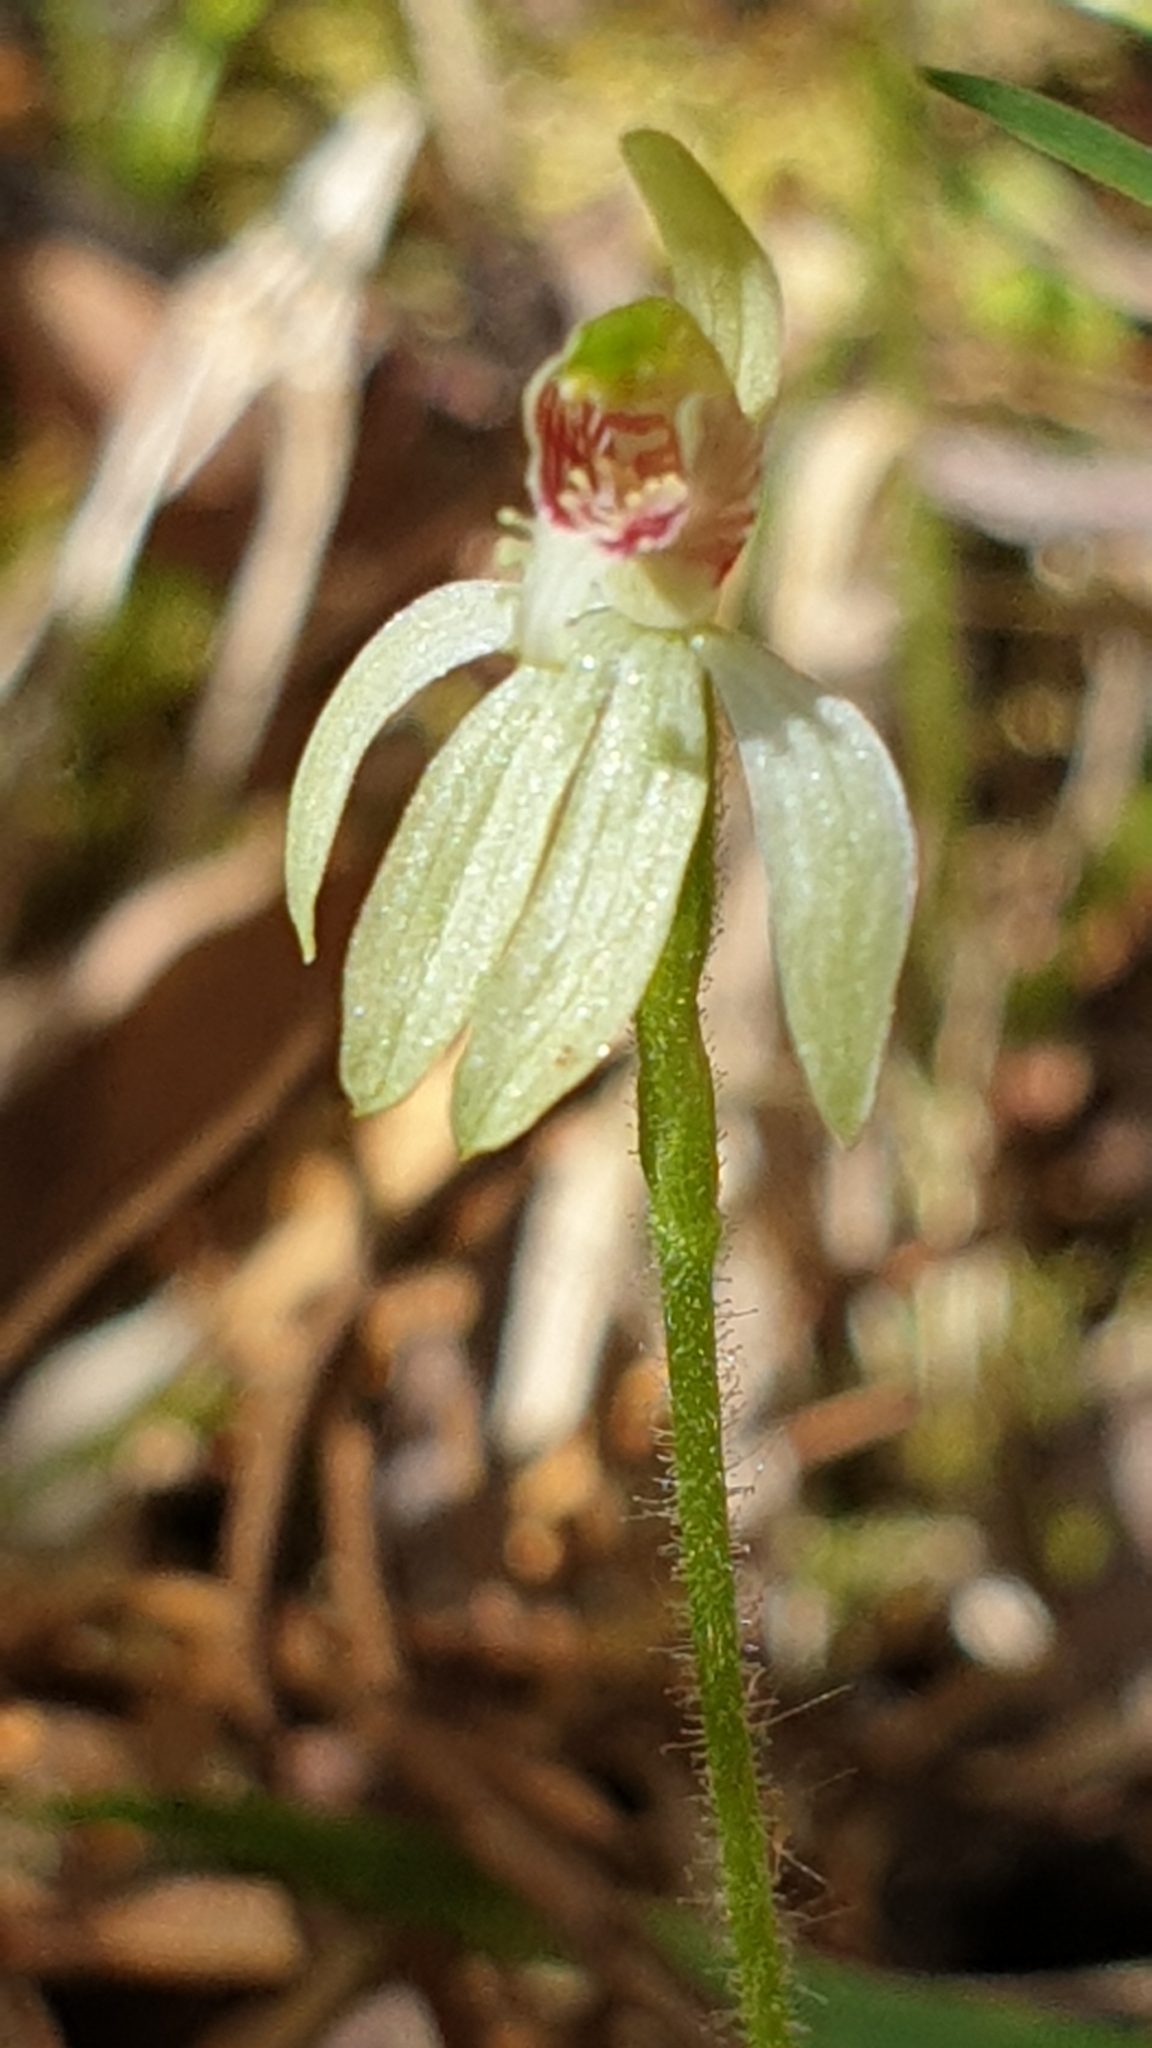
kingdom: Plantae
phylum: Tracheophyta
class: Liliopsida
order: Asparagales
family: Orchidaceae
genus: Caladenia
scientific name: Caladenia chlorostyla
